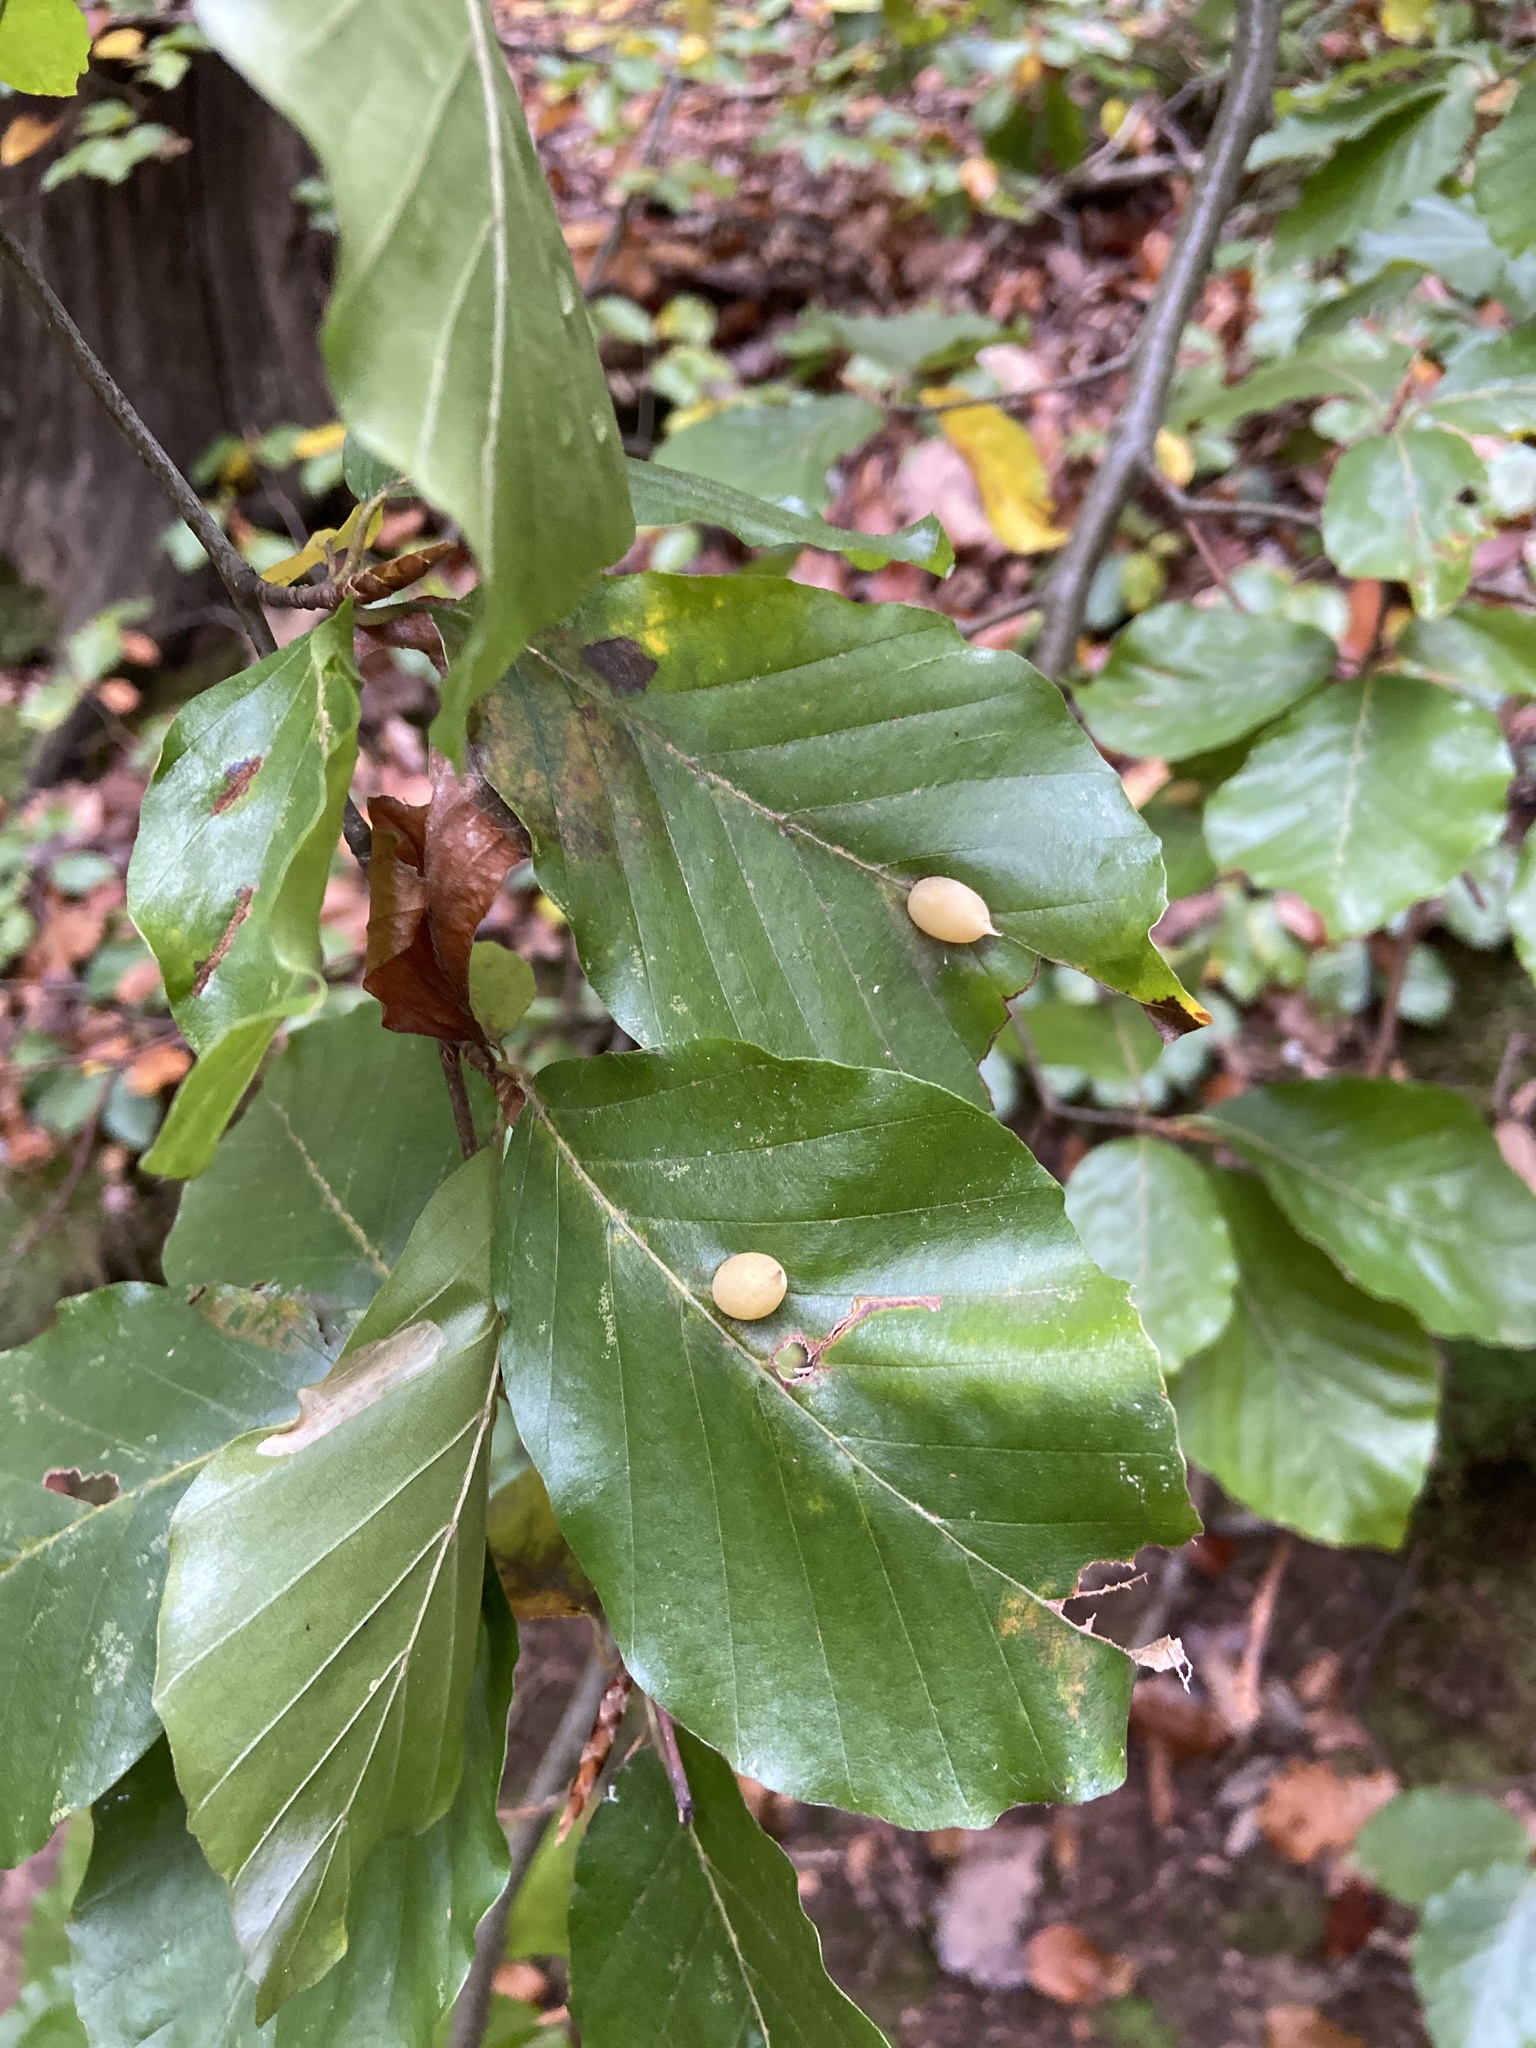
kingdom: Animalia
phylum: Arthropoda
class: Insecta
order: Diptera
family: Cecidomyiidae
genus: Mikiola
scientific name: Mikiola fagi
